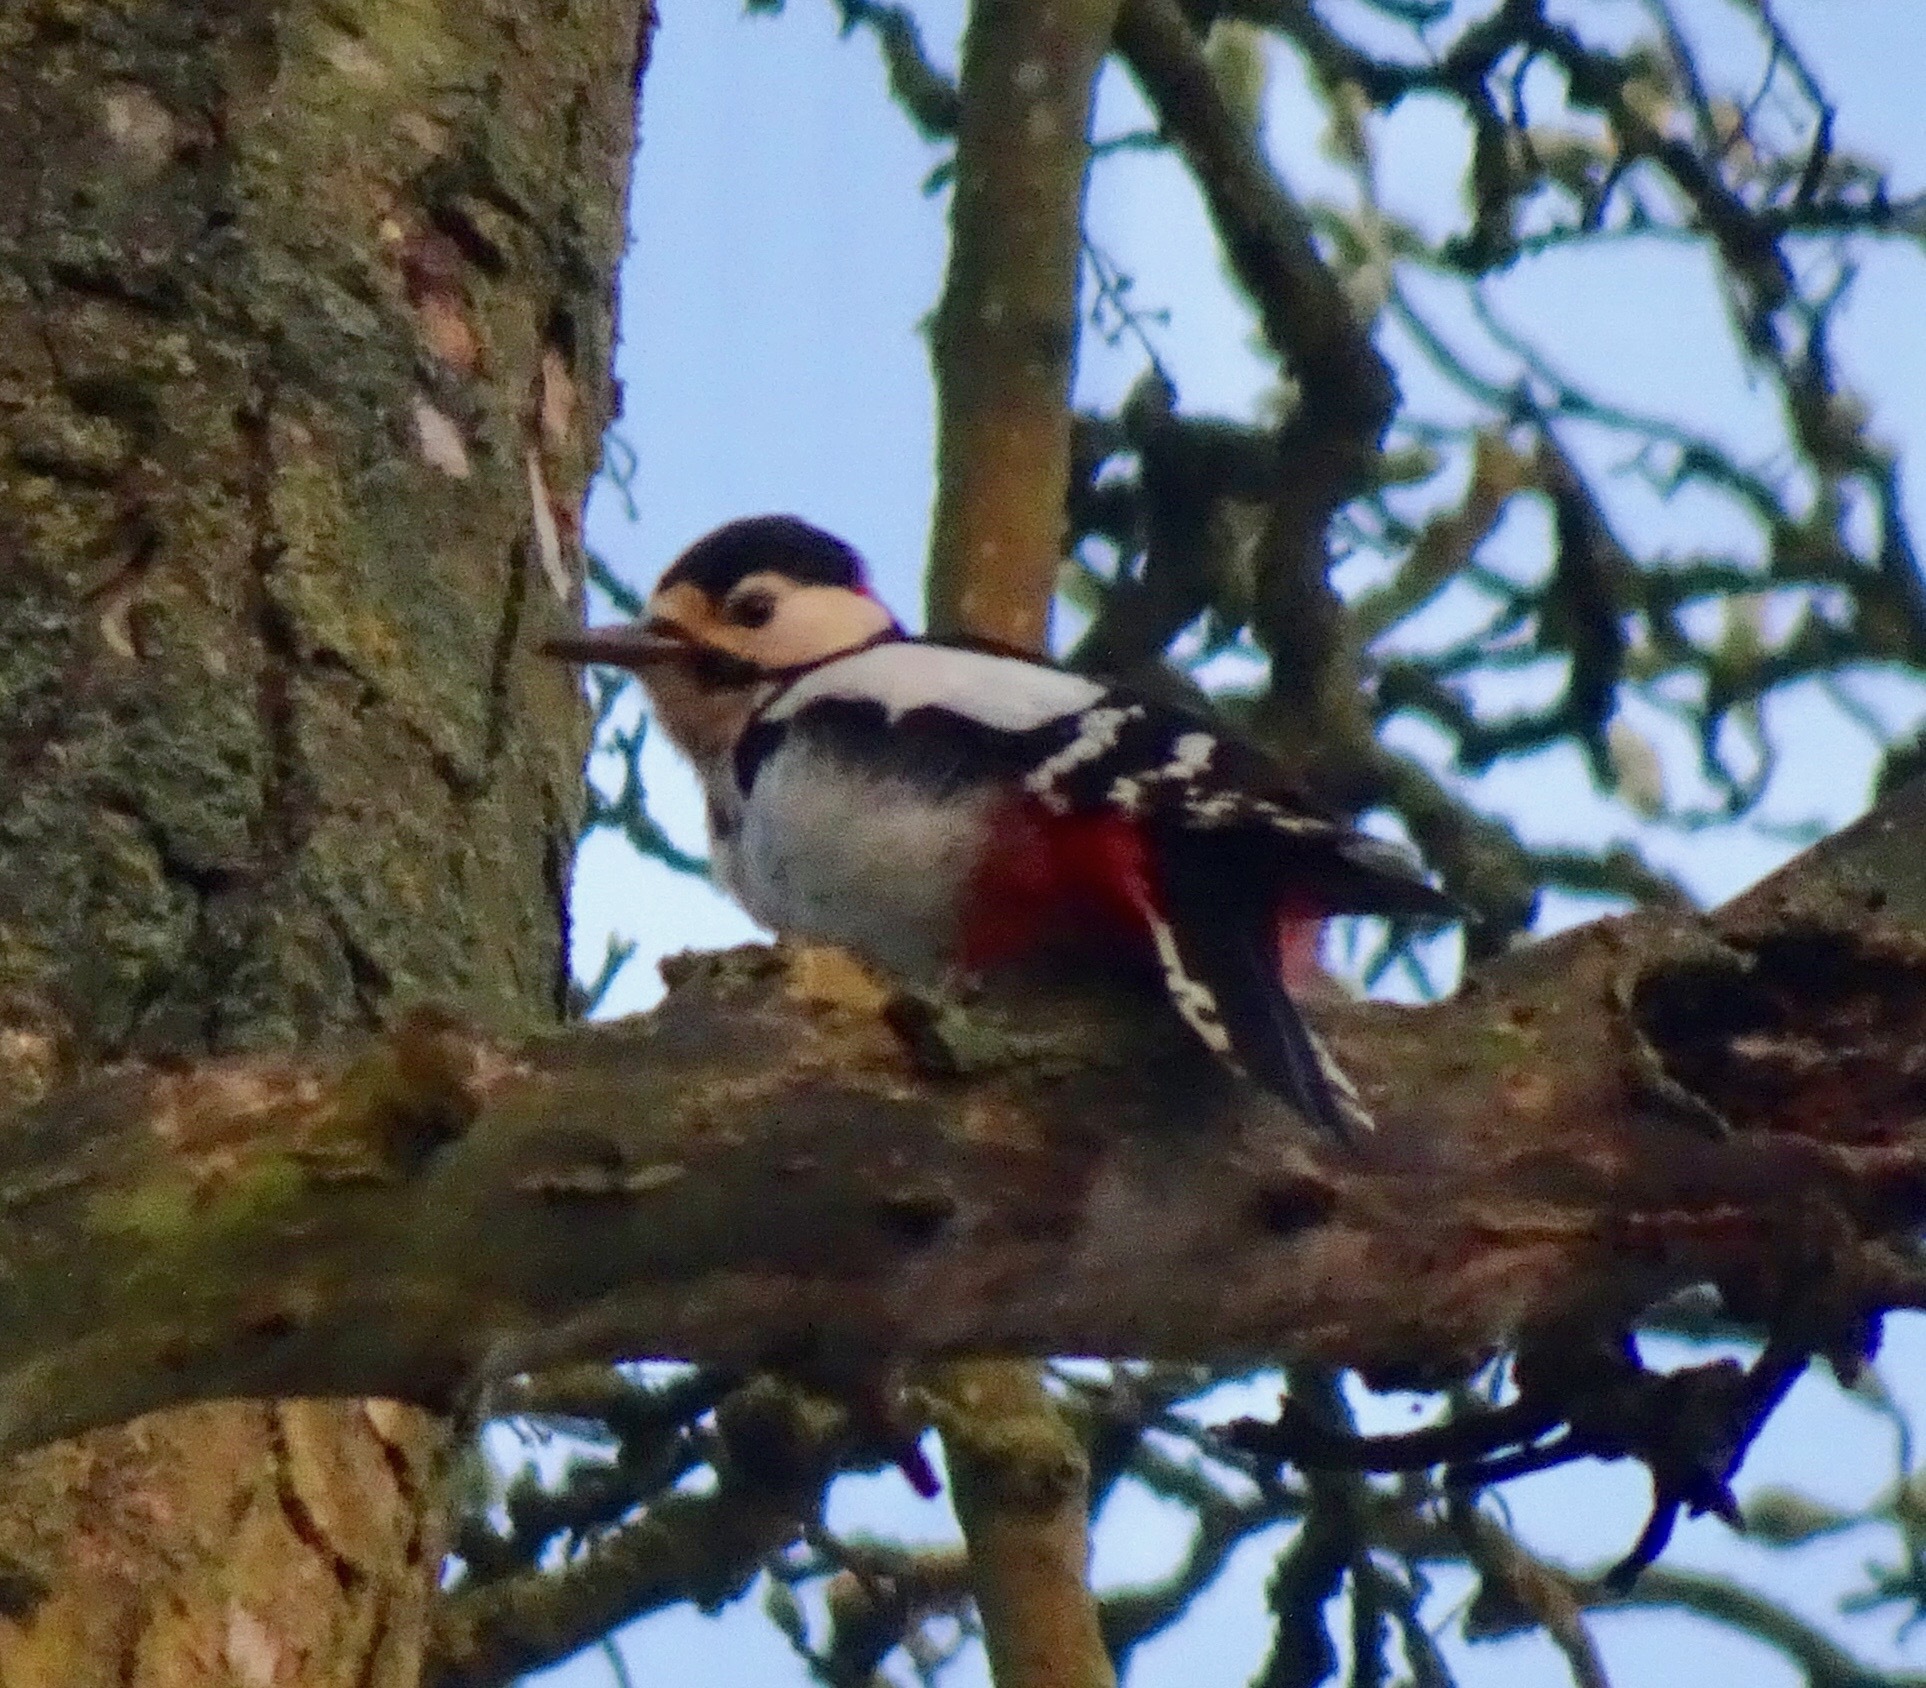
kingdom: Animalia
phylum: Chordata
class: Aves
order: Piciformes
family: Picidae
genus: Dendrocopos
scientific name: Dendrocopos major
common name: Great spotted woodpecker
